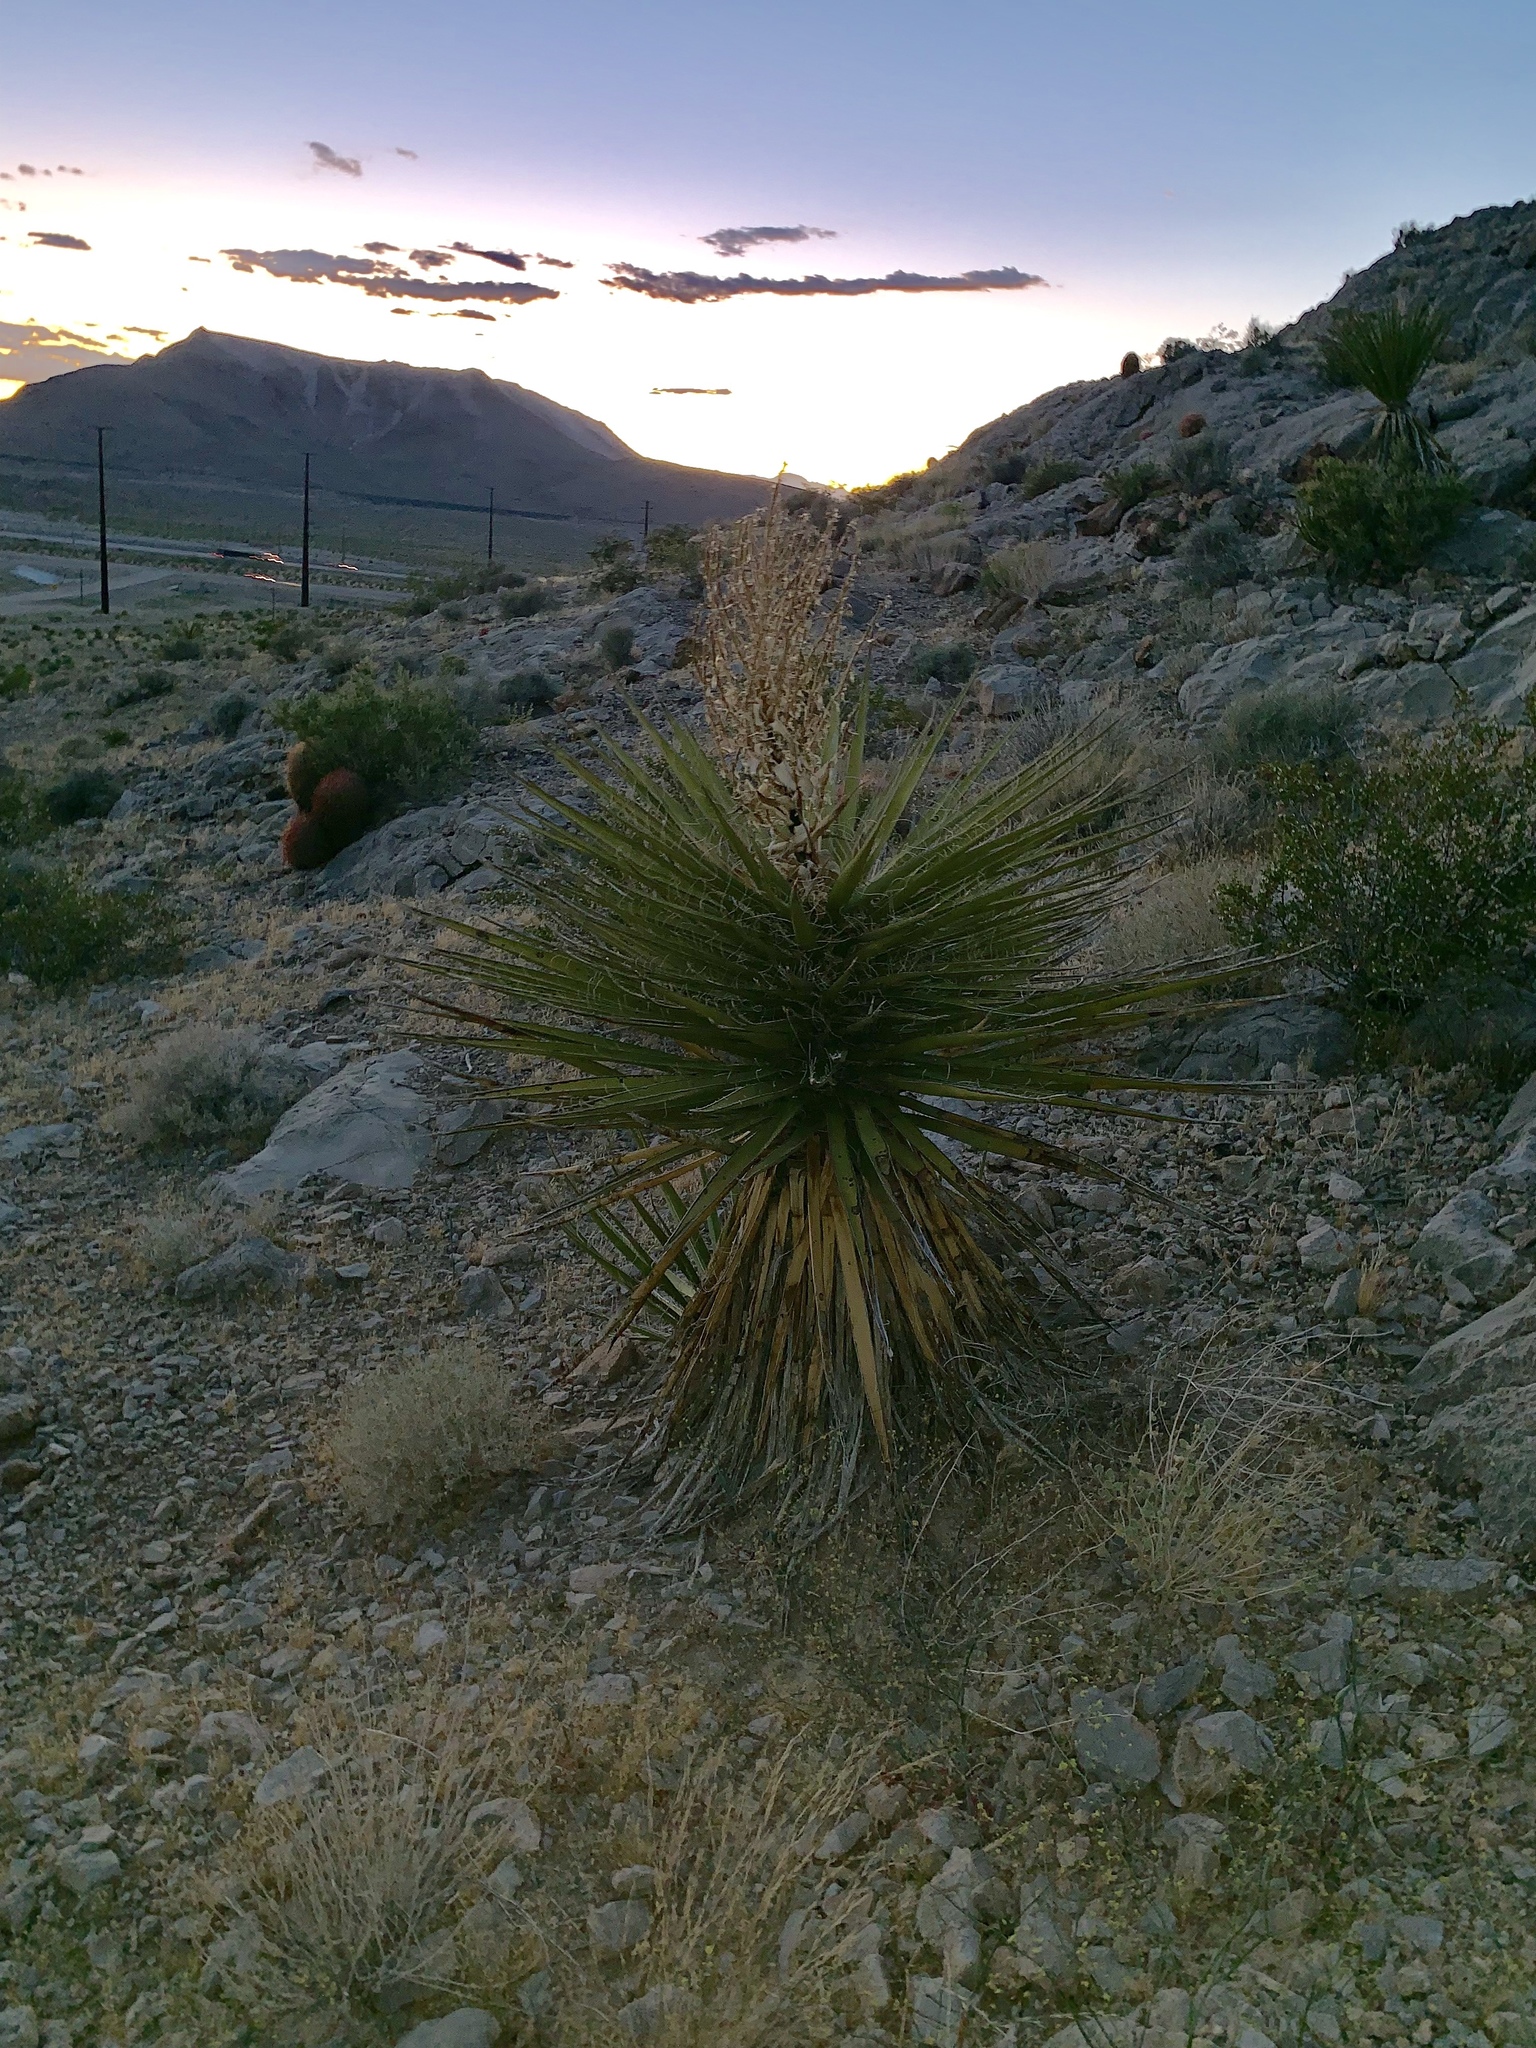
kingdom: Plantae
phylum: Tracheophyta
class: Liliopsida
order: Asparagales
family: Asparagaceae
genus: Yucca
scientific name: Yucca schidigera
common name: Mojave yucca
